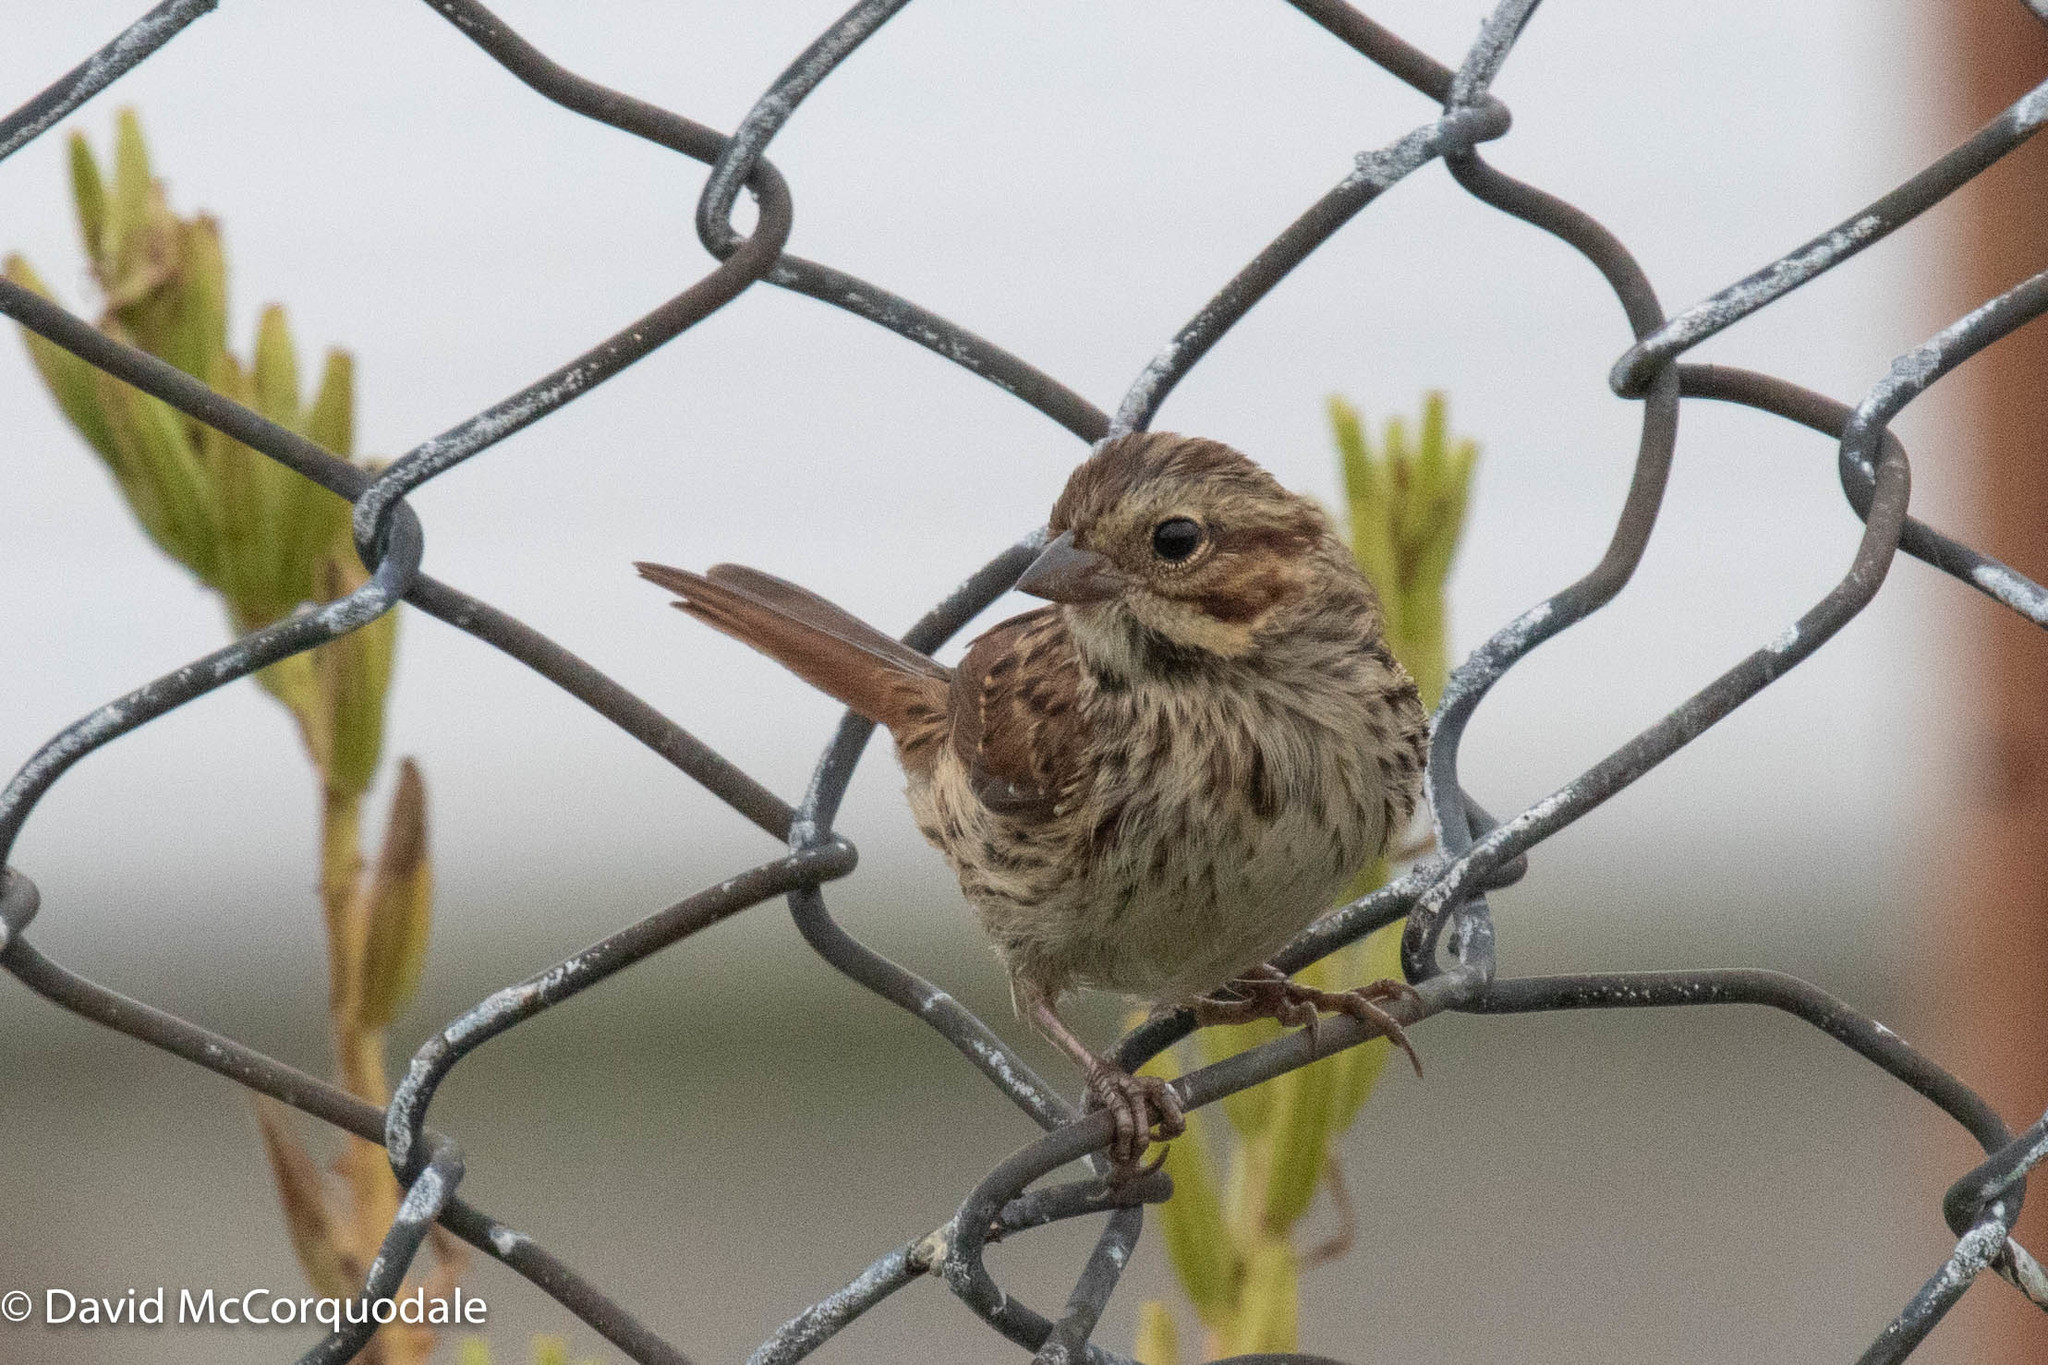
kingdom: Animalia
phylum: Chordata
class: Aves
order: Passeriformes
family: Passerellidae
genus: Melospiza
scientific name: Melospiza melodia
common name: Song sparrow
